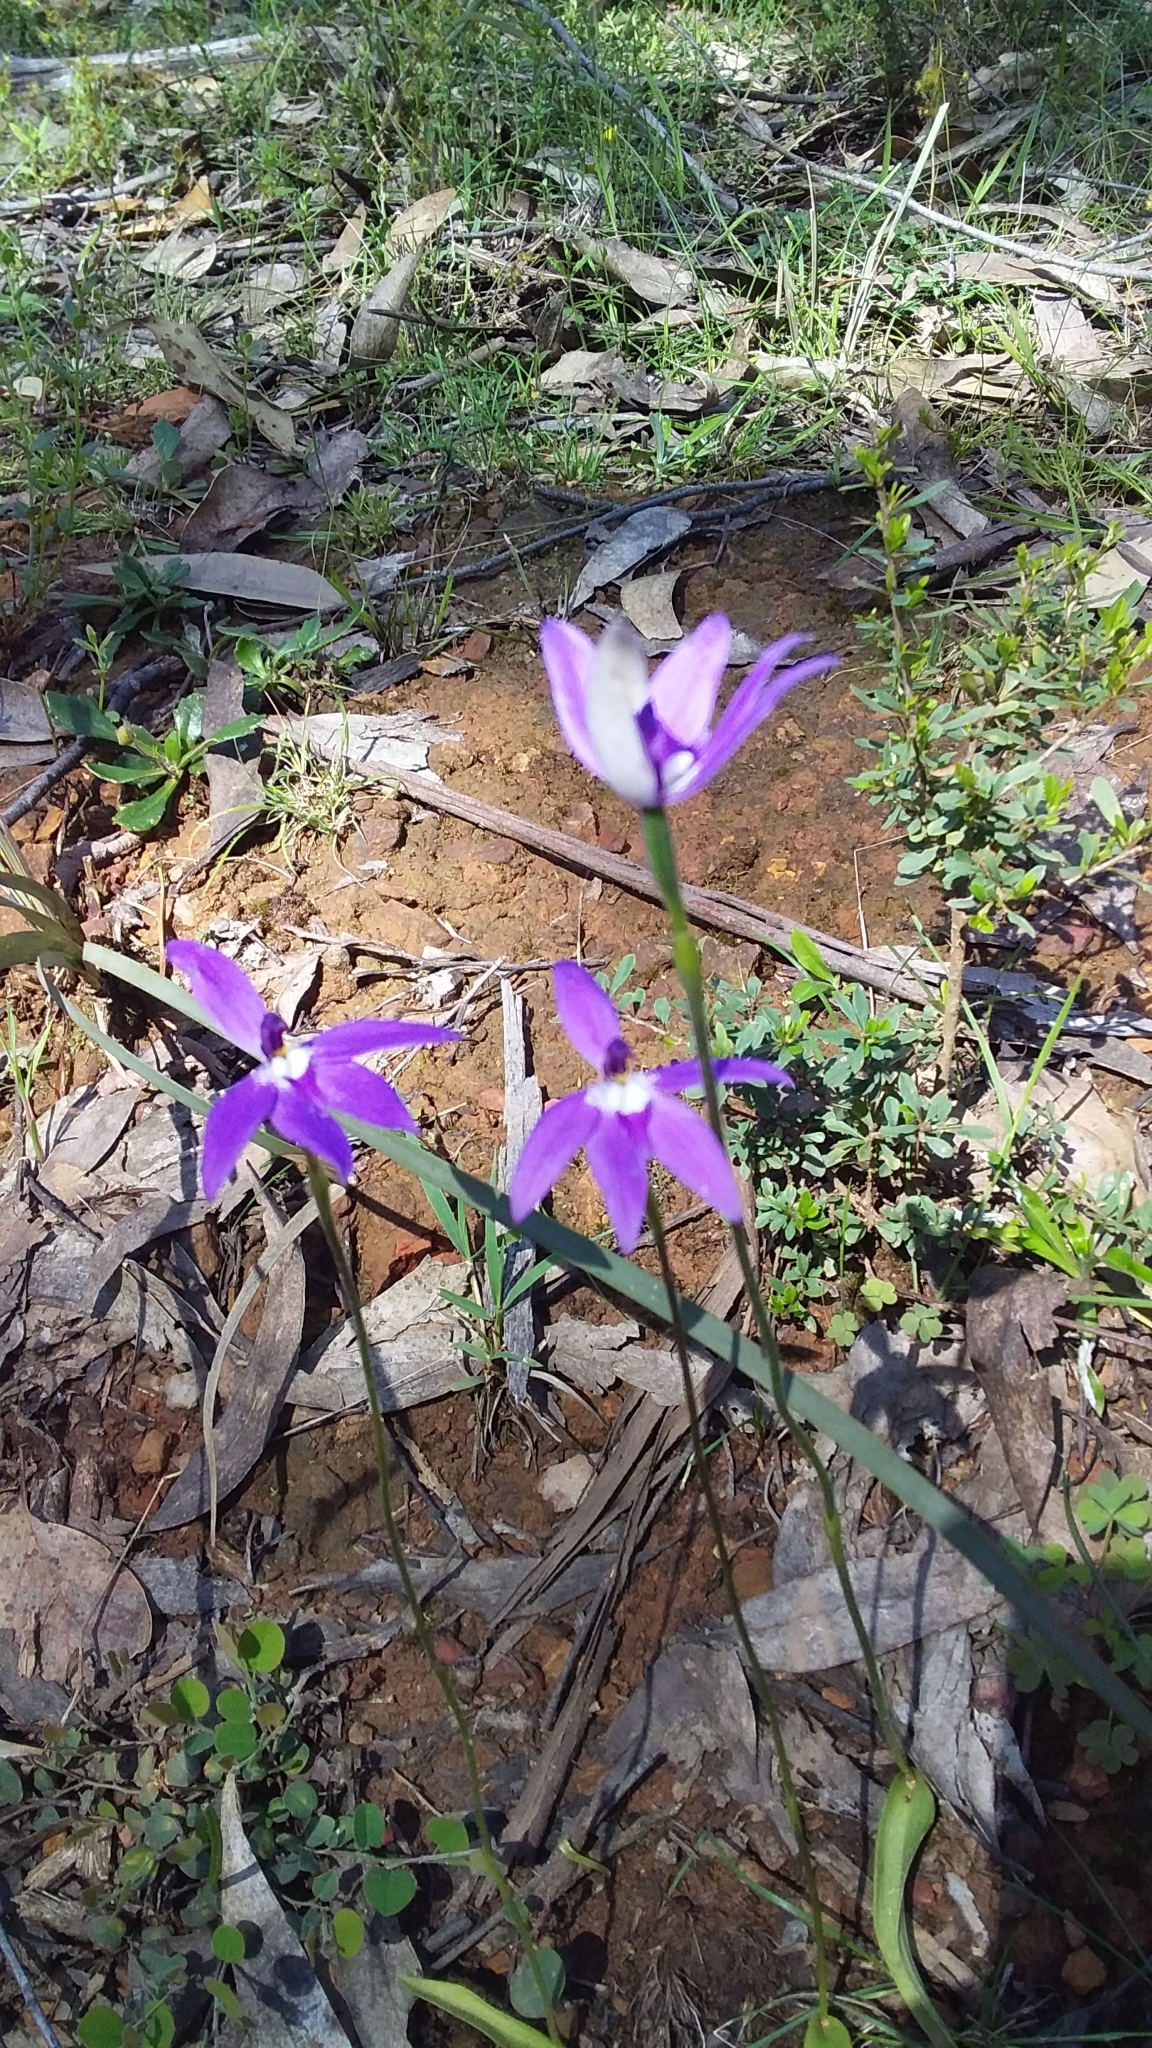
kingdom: Plantae
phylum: Tracheophyta
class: Liliopsida
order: Asparagales
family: Orchidaceae
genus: Caladenia
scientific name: Caladenia major
